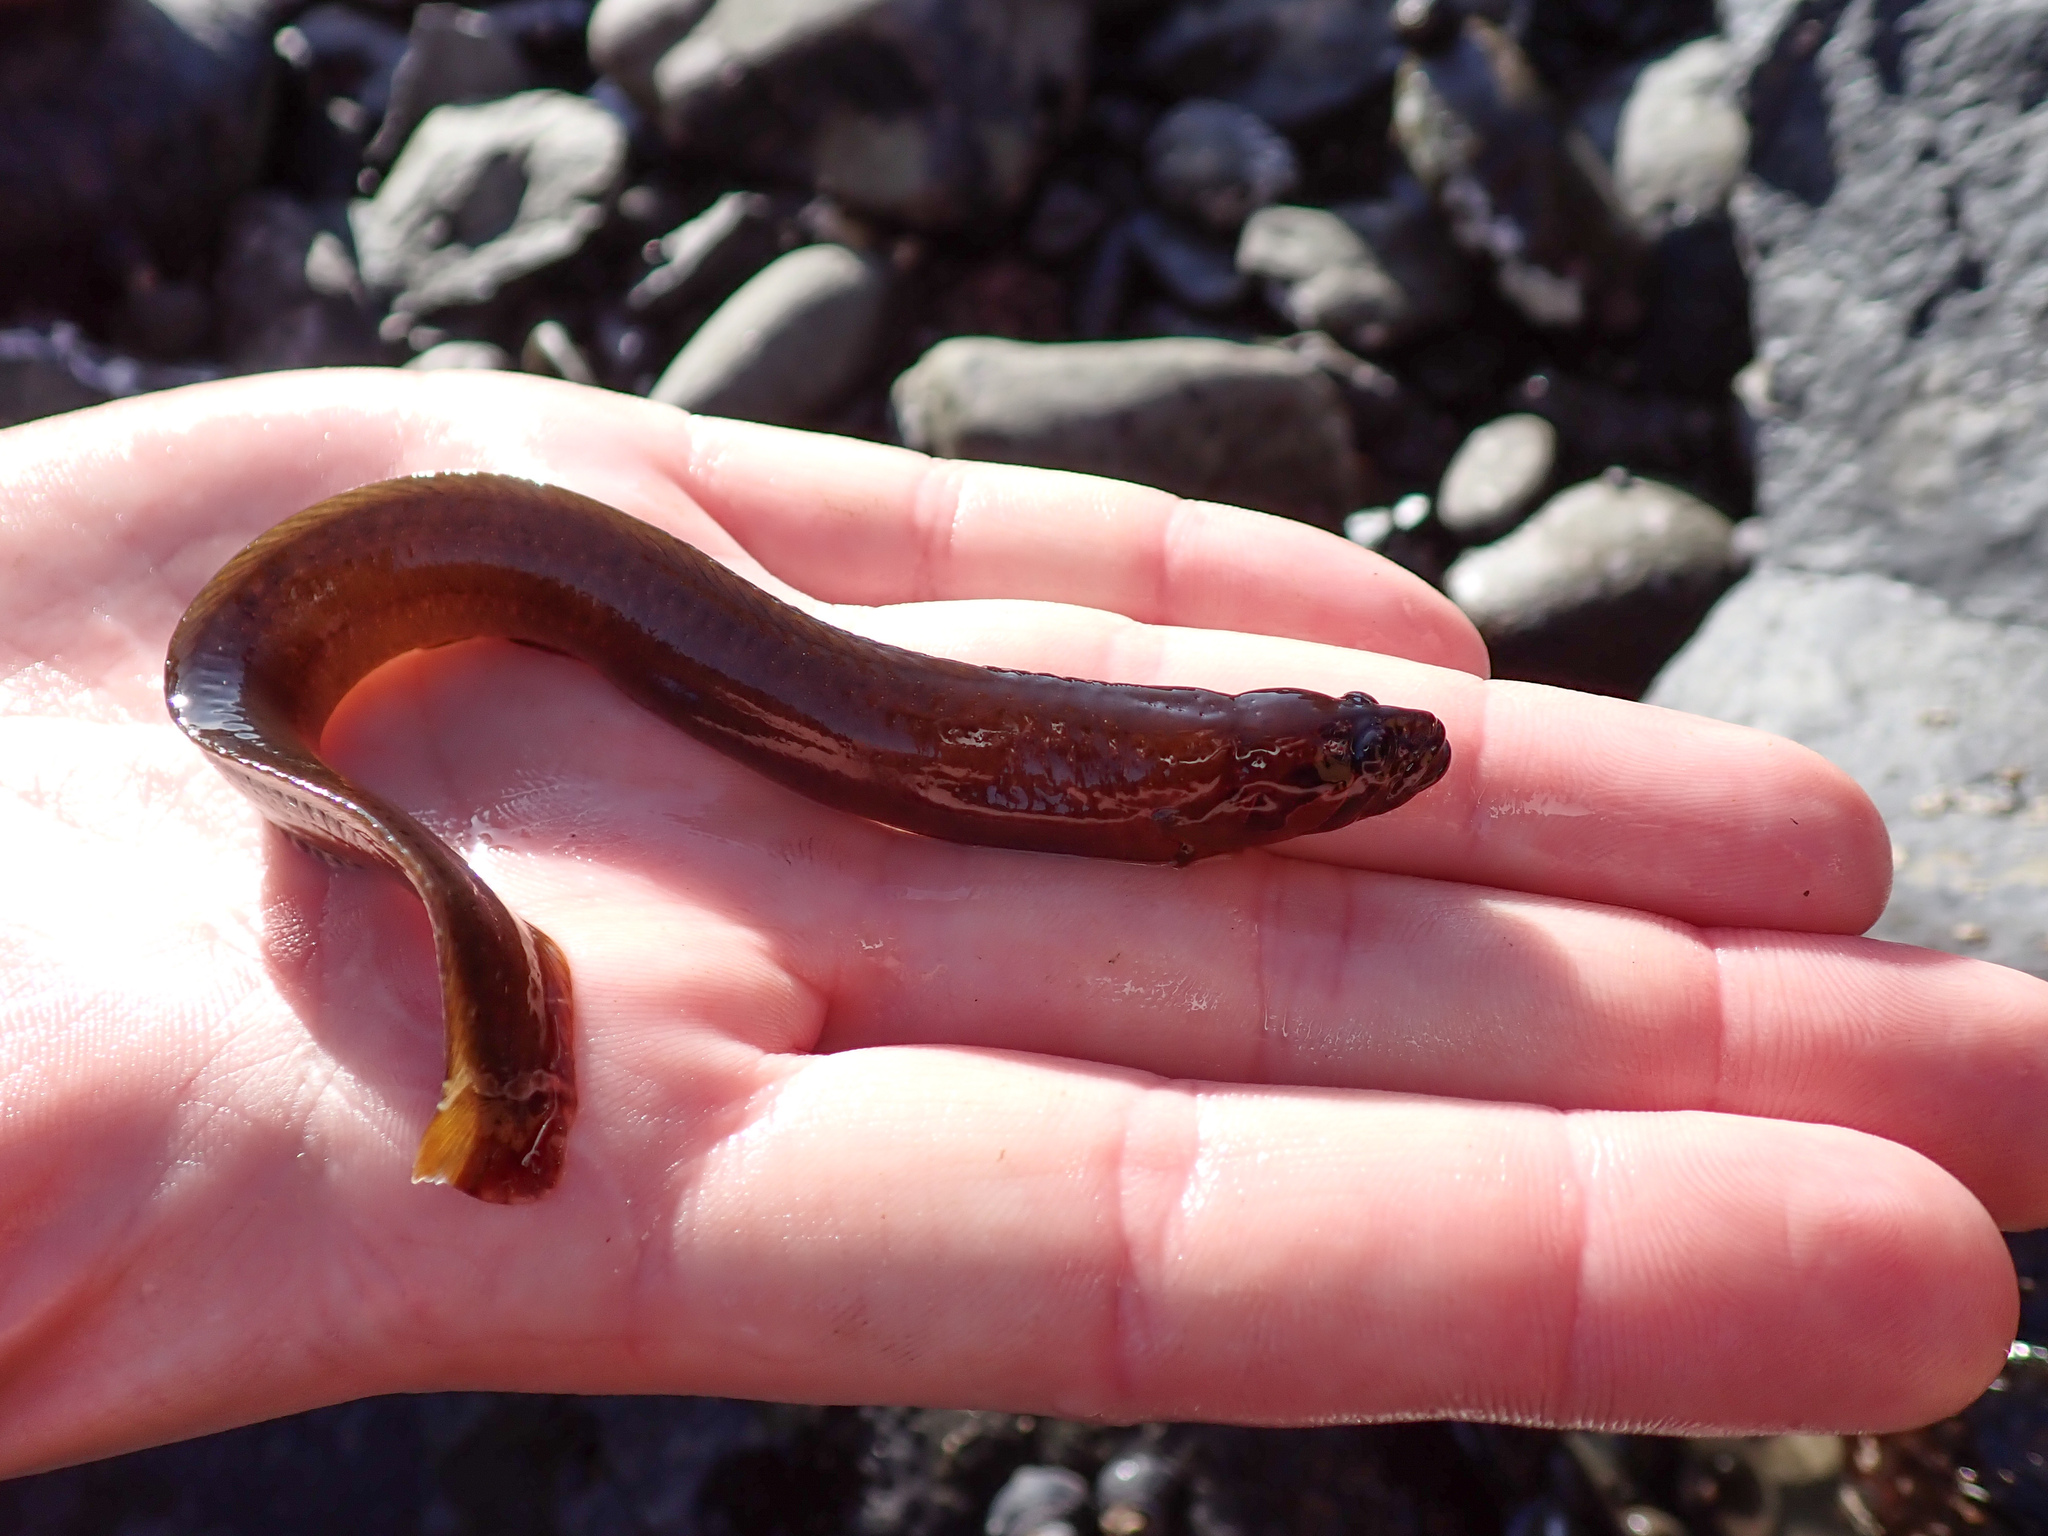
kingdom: Animalia
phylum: Chordata
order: Perciformes
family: Stichaeidae
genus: Xiphister
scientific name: Xiphister atropurpureus
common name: Black prickleback
